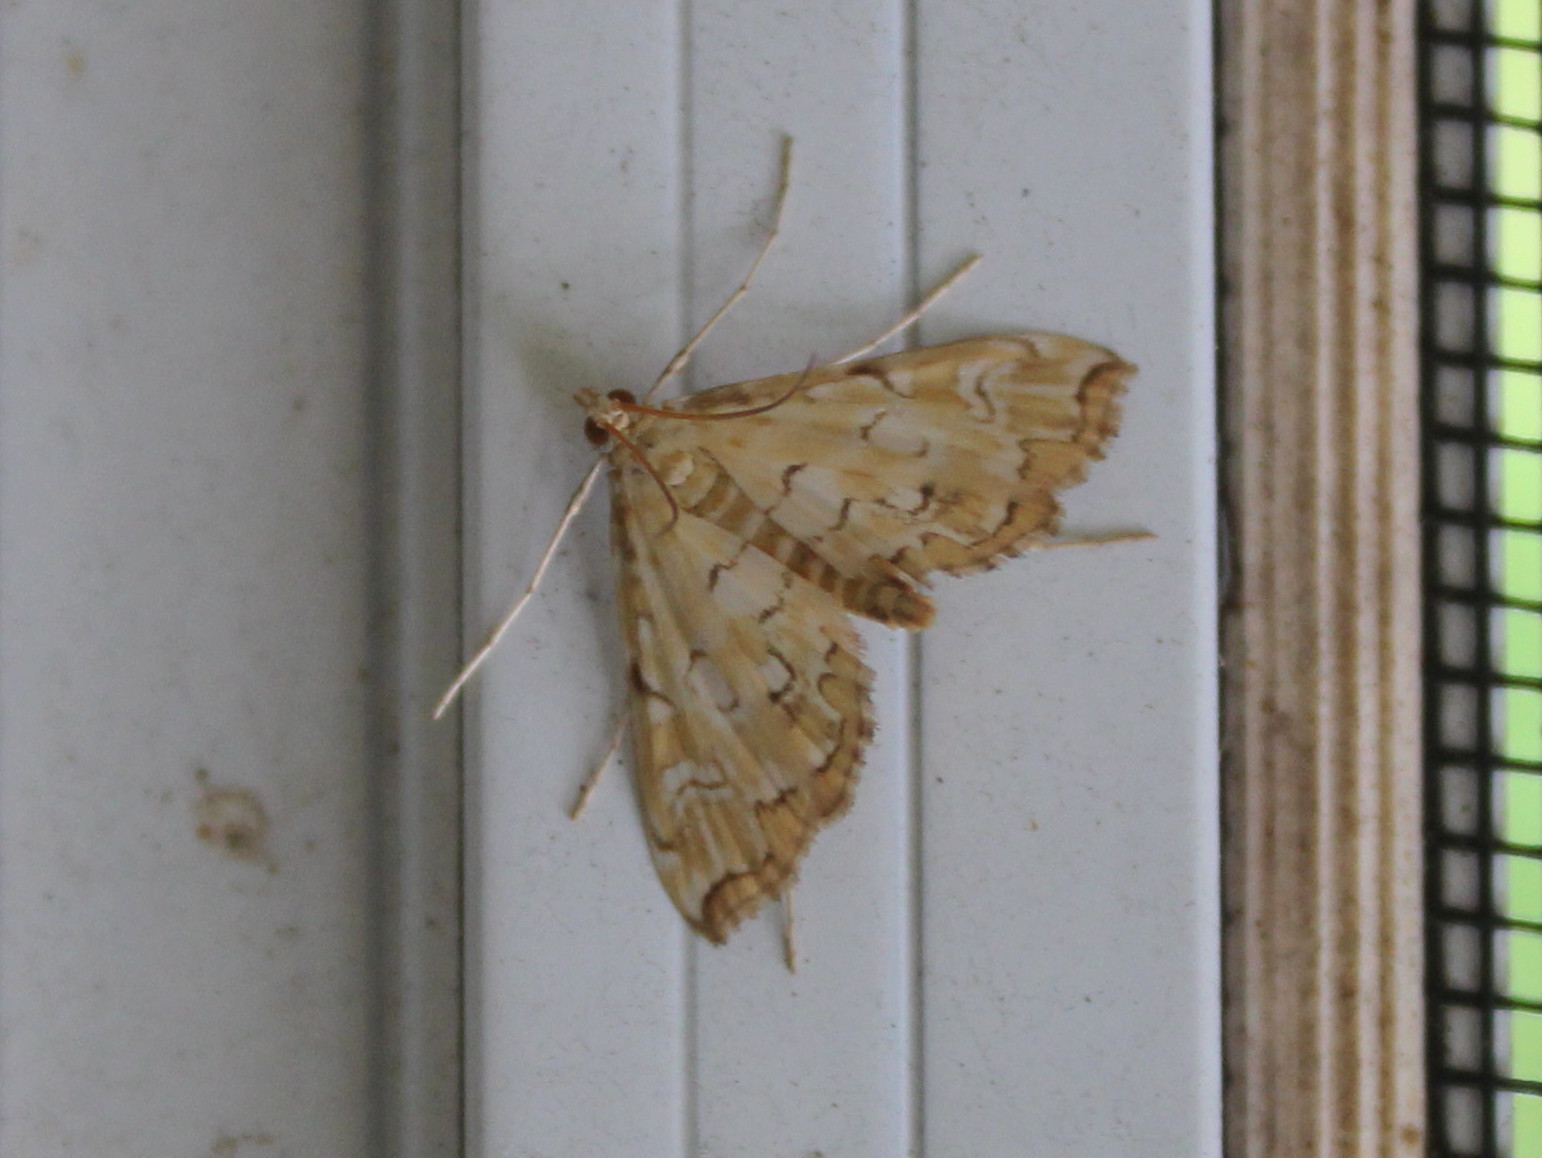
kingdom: Animalia
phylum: Arthropoda
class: Insecta
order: Lepidoptera
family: Crambidae
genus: Elophila
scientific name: Elophila icciusalis
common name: Pondside pyralid moth
